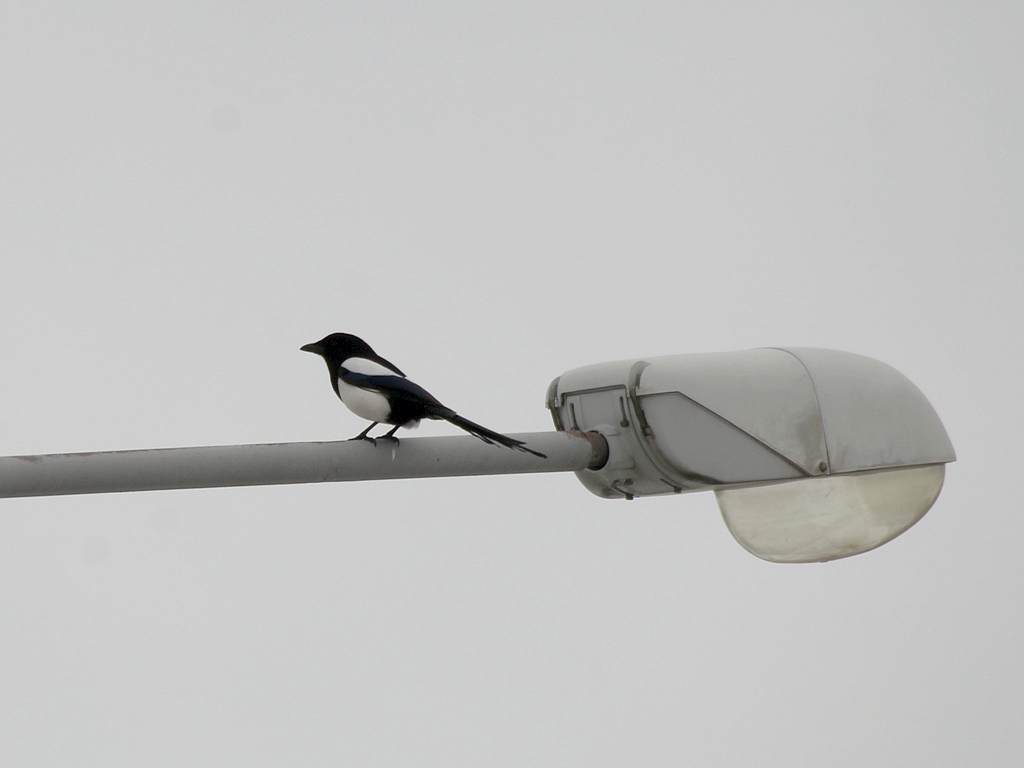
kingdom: Animalia
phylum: Chordata
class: Aves
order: Passeriformes
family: Corvidae
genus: Pica
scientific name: Pica pica
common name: Eurasian magpie
